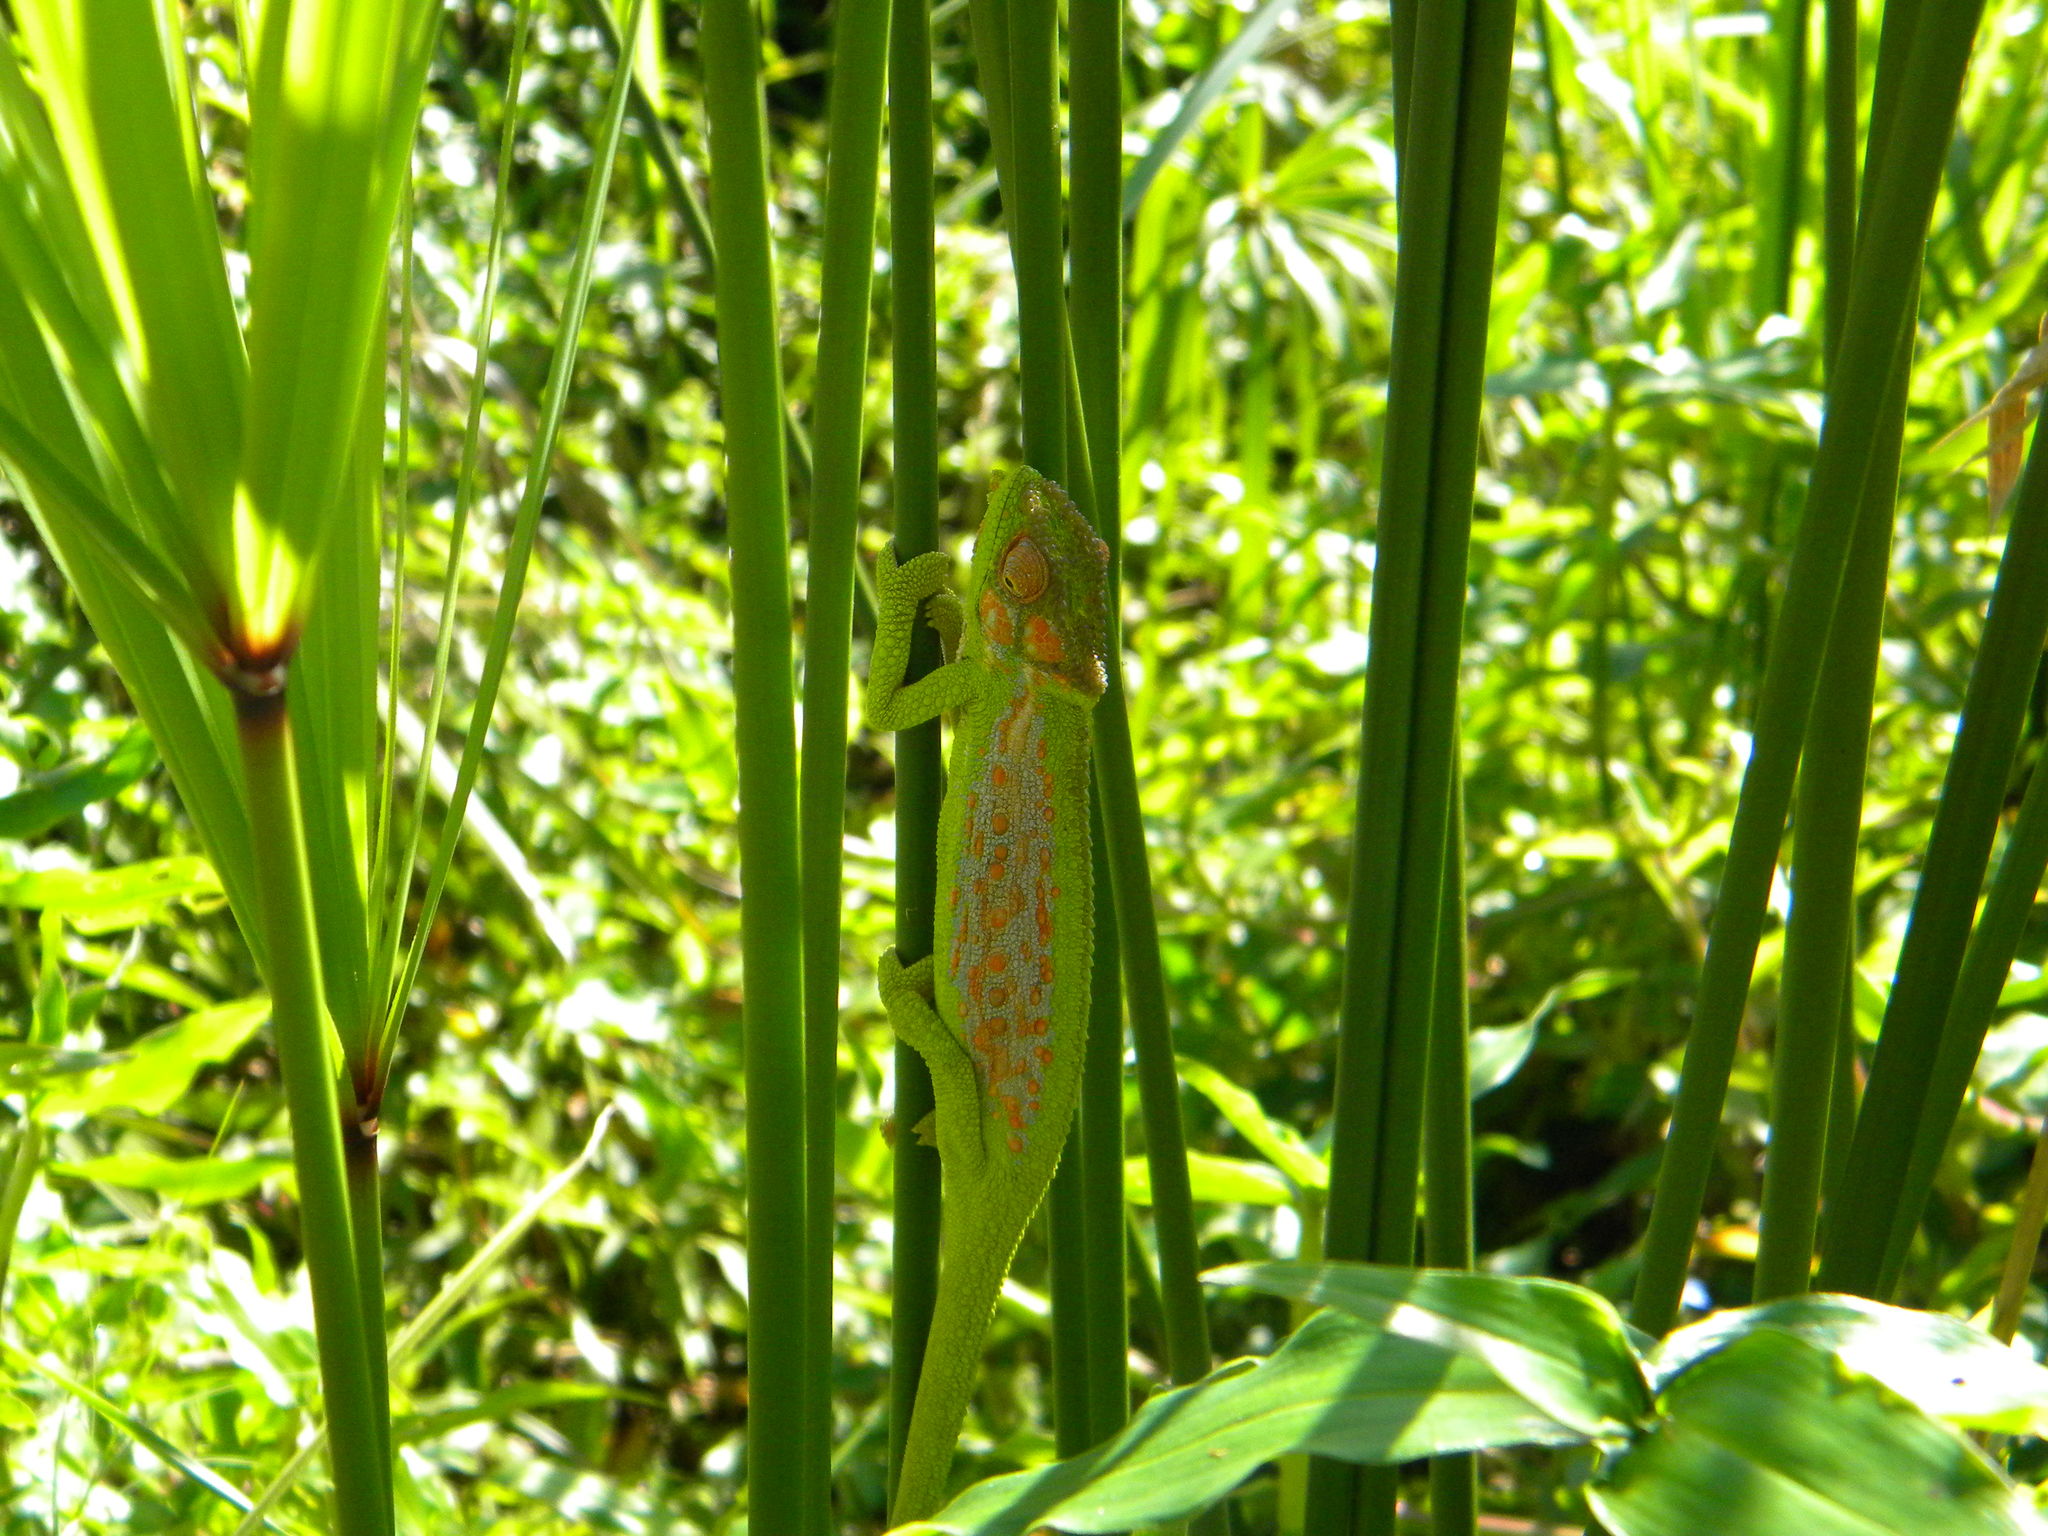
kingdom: Animalia
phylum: Chordata
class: Squamata
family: Chamaeleonidae
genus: Bradypodion
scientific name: Bradypodion pumilum
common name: Cape dwarf chameleon
